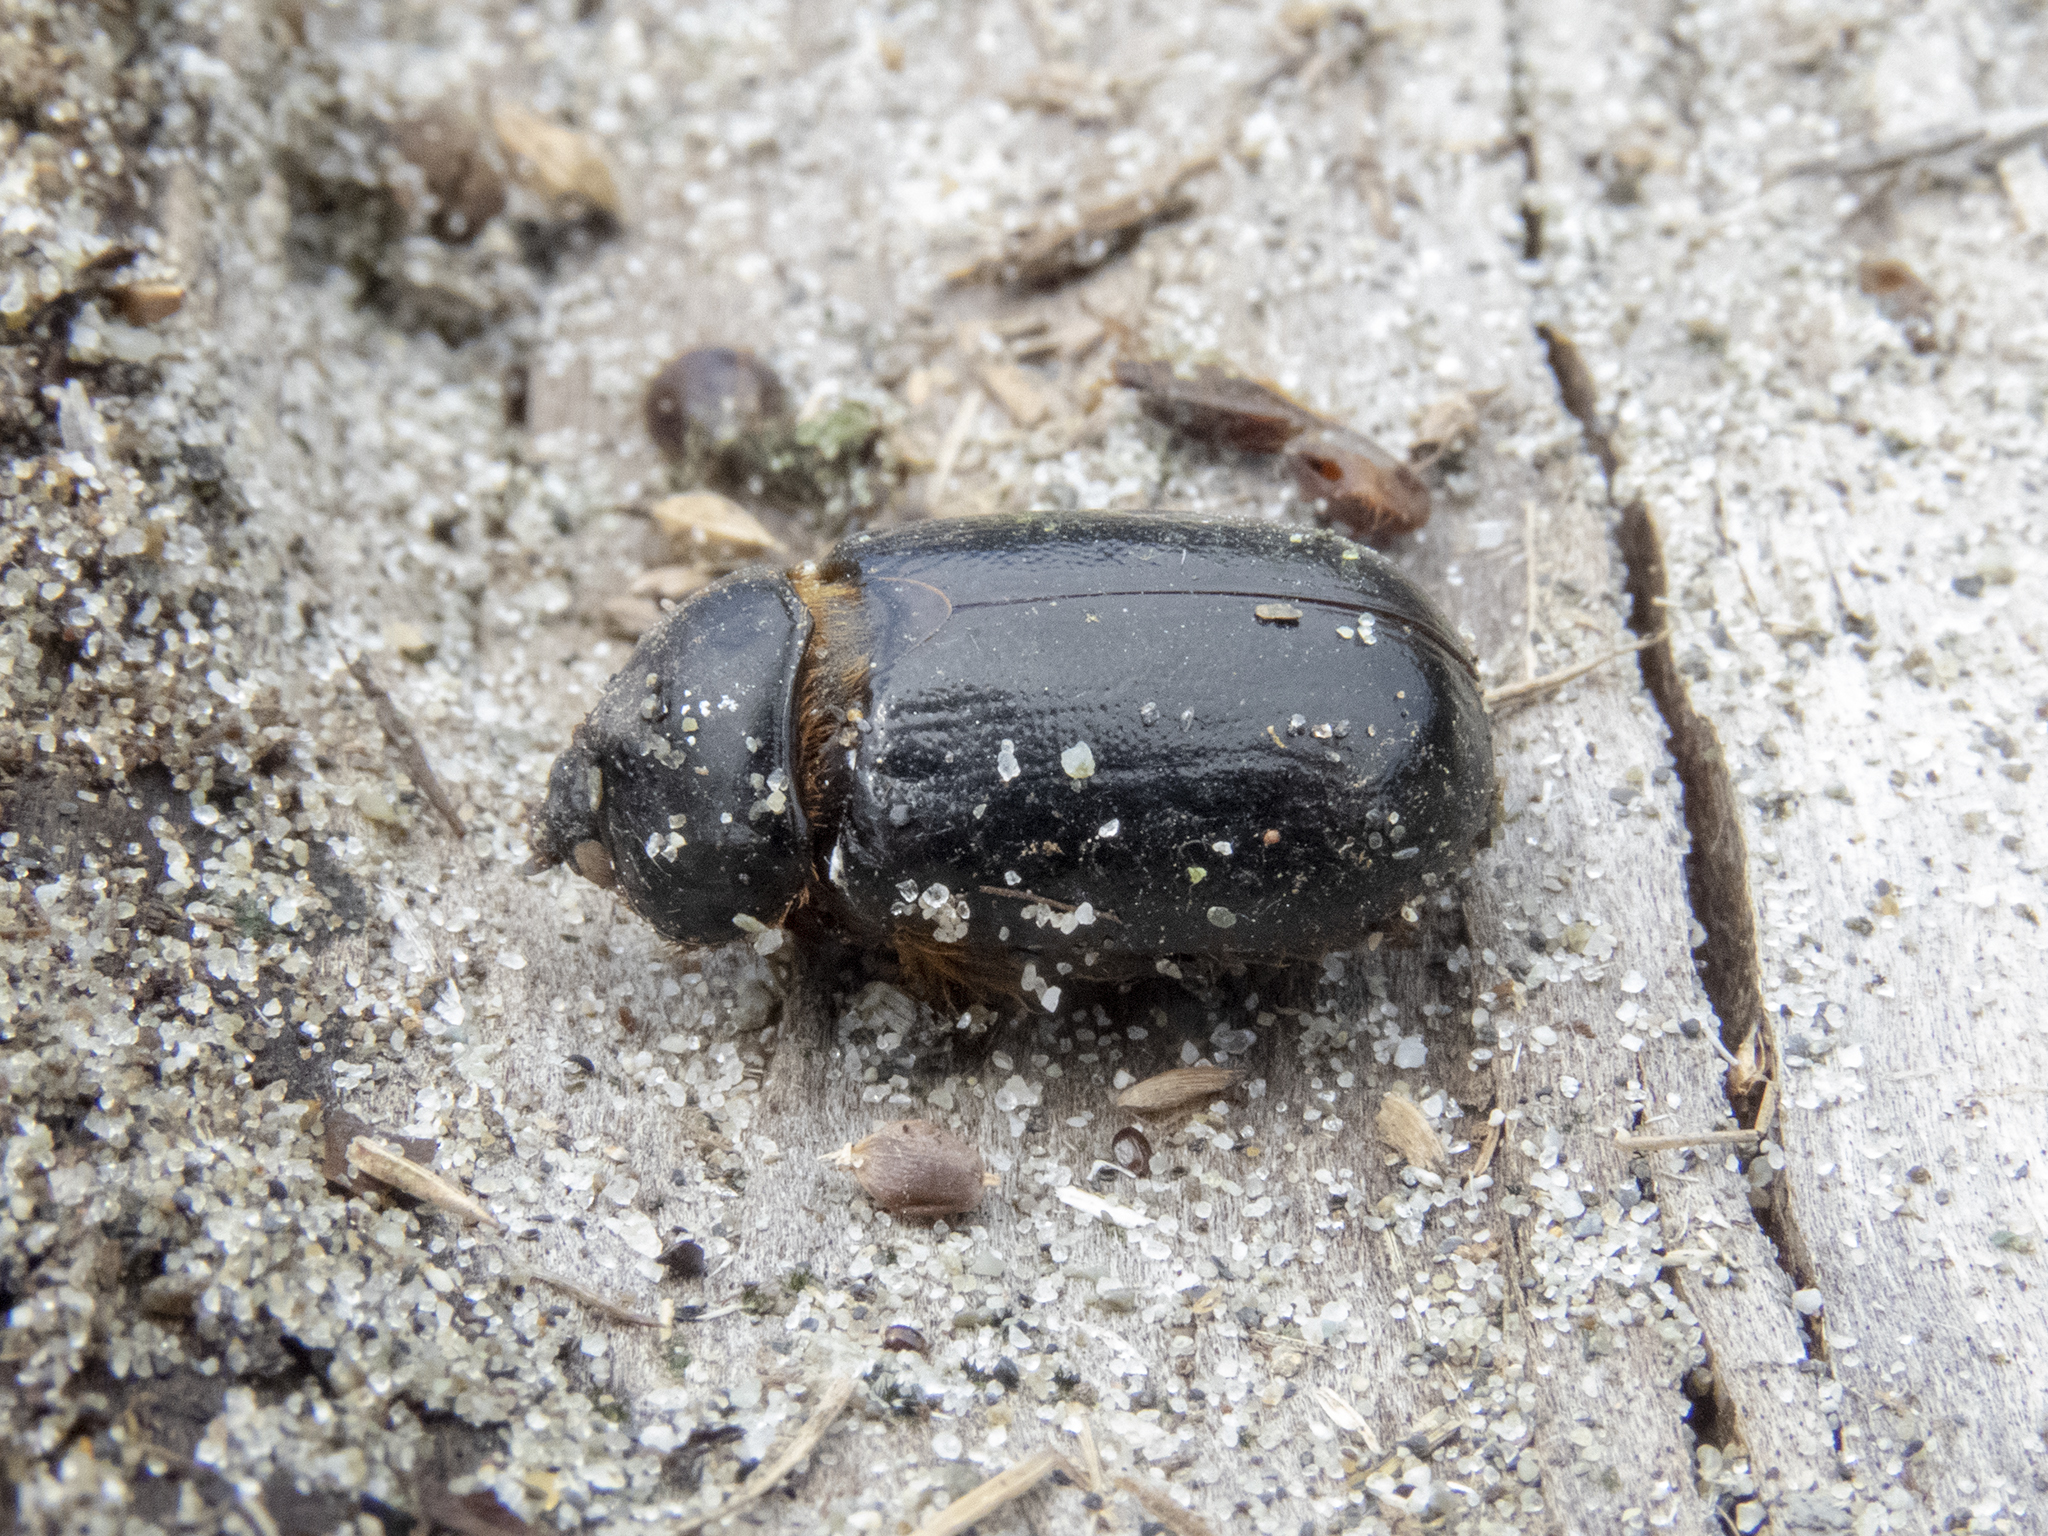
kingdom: Animalia
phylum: Arthropoda
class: Insecta
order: Coleoptera
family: Scarabaeidae
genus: Pericoptus
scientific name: Pericoptus truncatus
